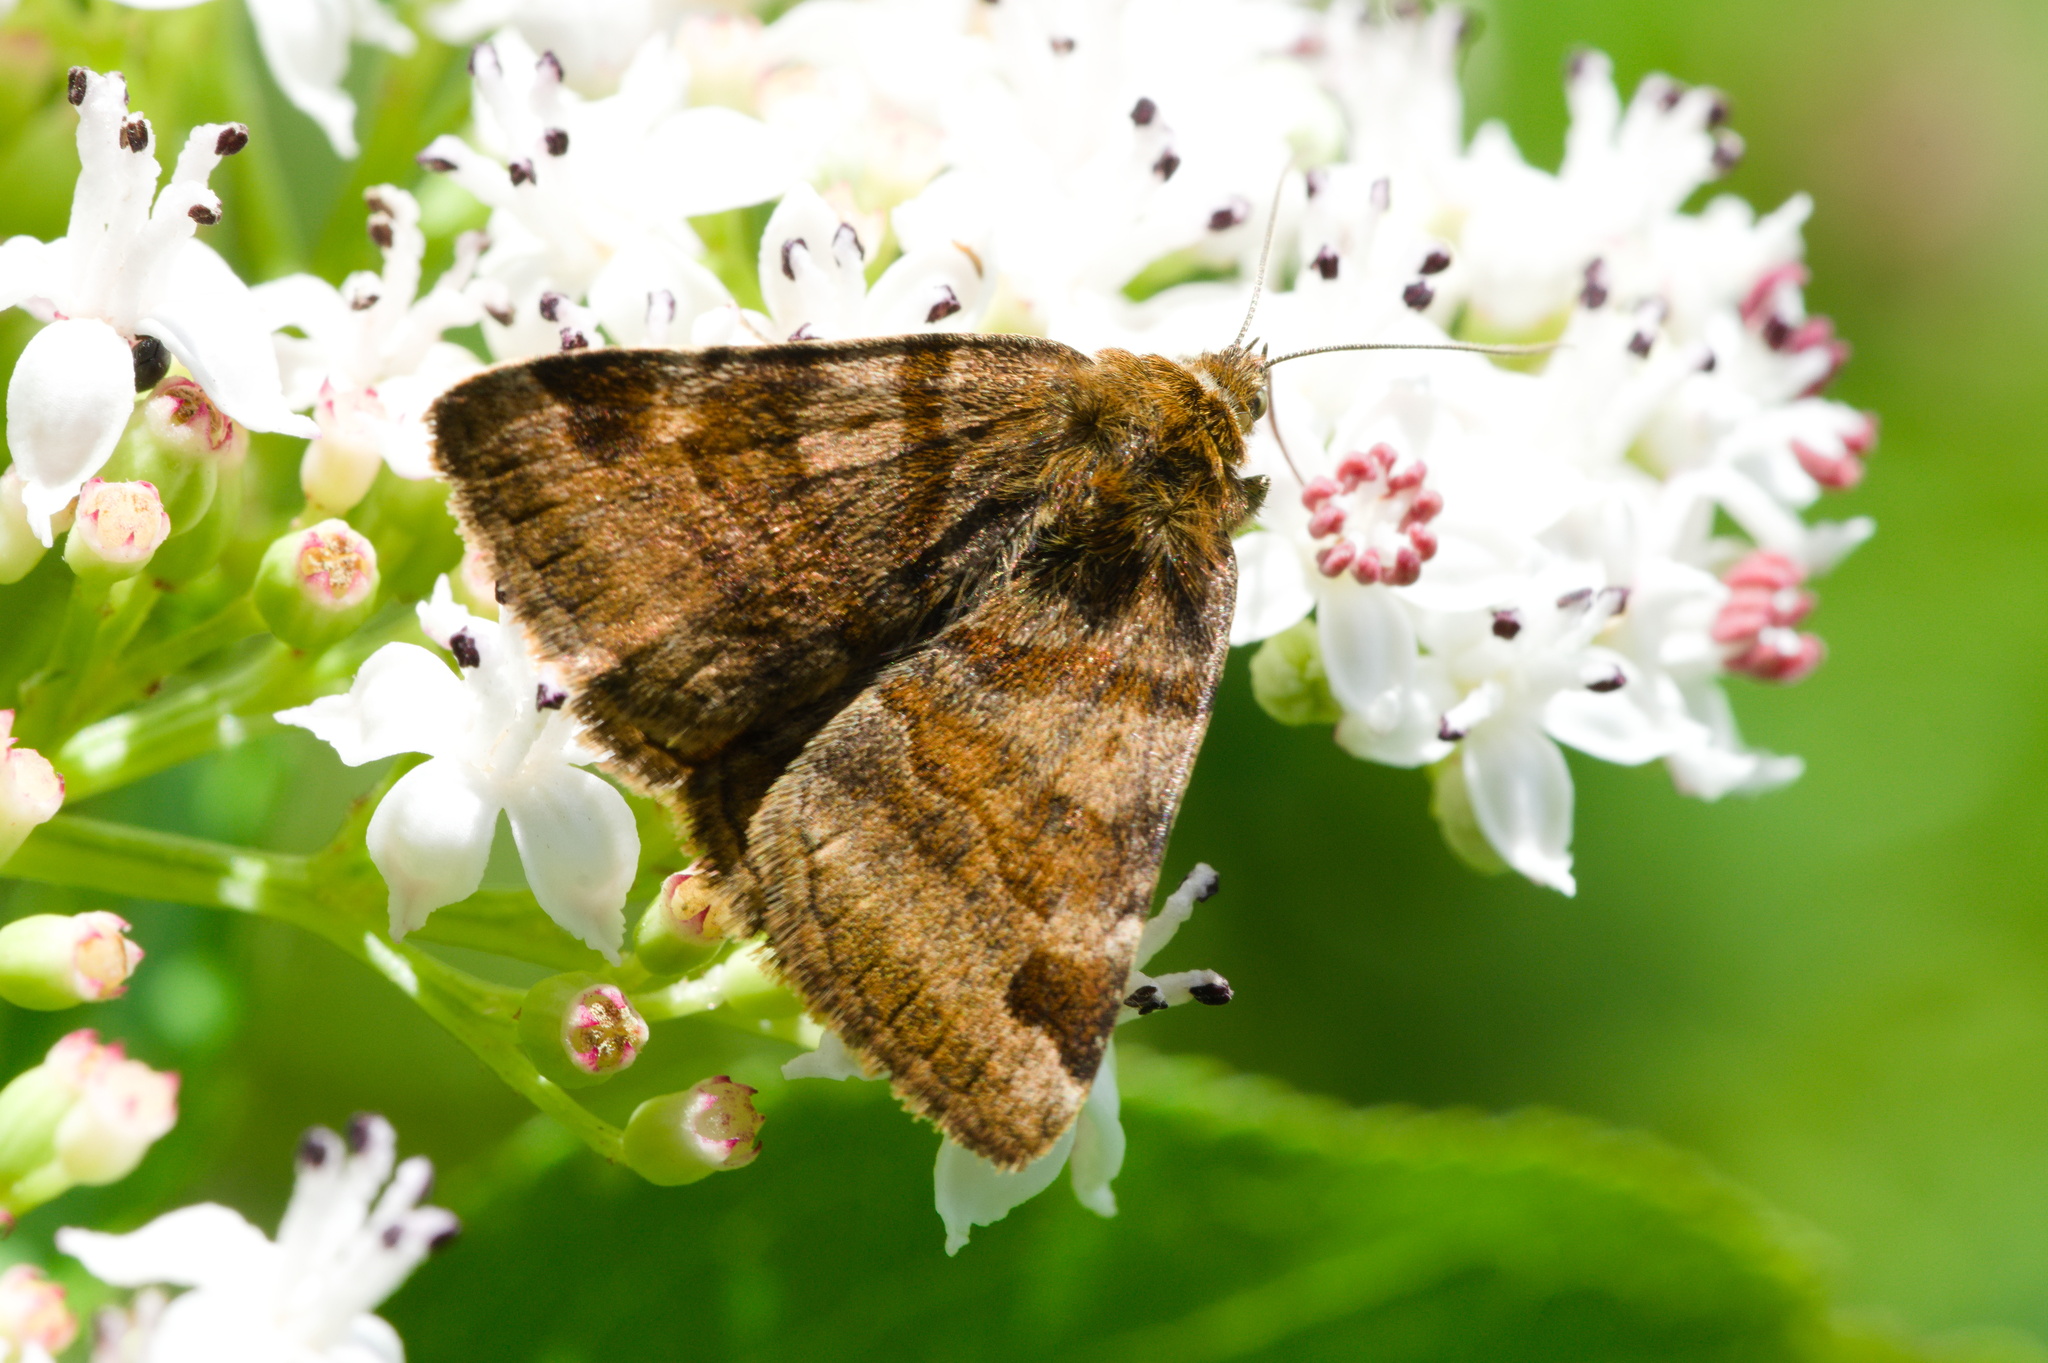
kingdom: Animalia
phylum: Arthropoda
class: Insecta
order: Lepidoptera
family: Erebidae
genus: Euclidia
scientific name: Euclidia glyphica
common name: Burnet companion
